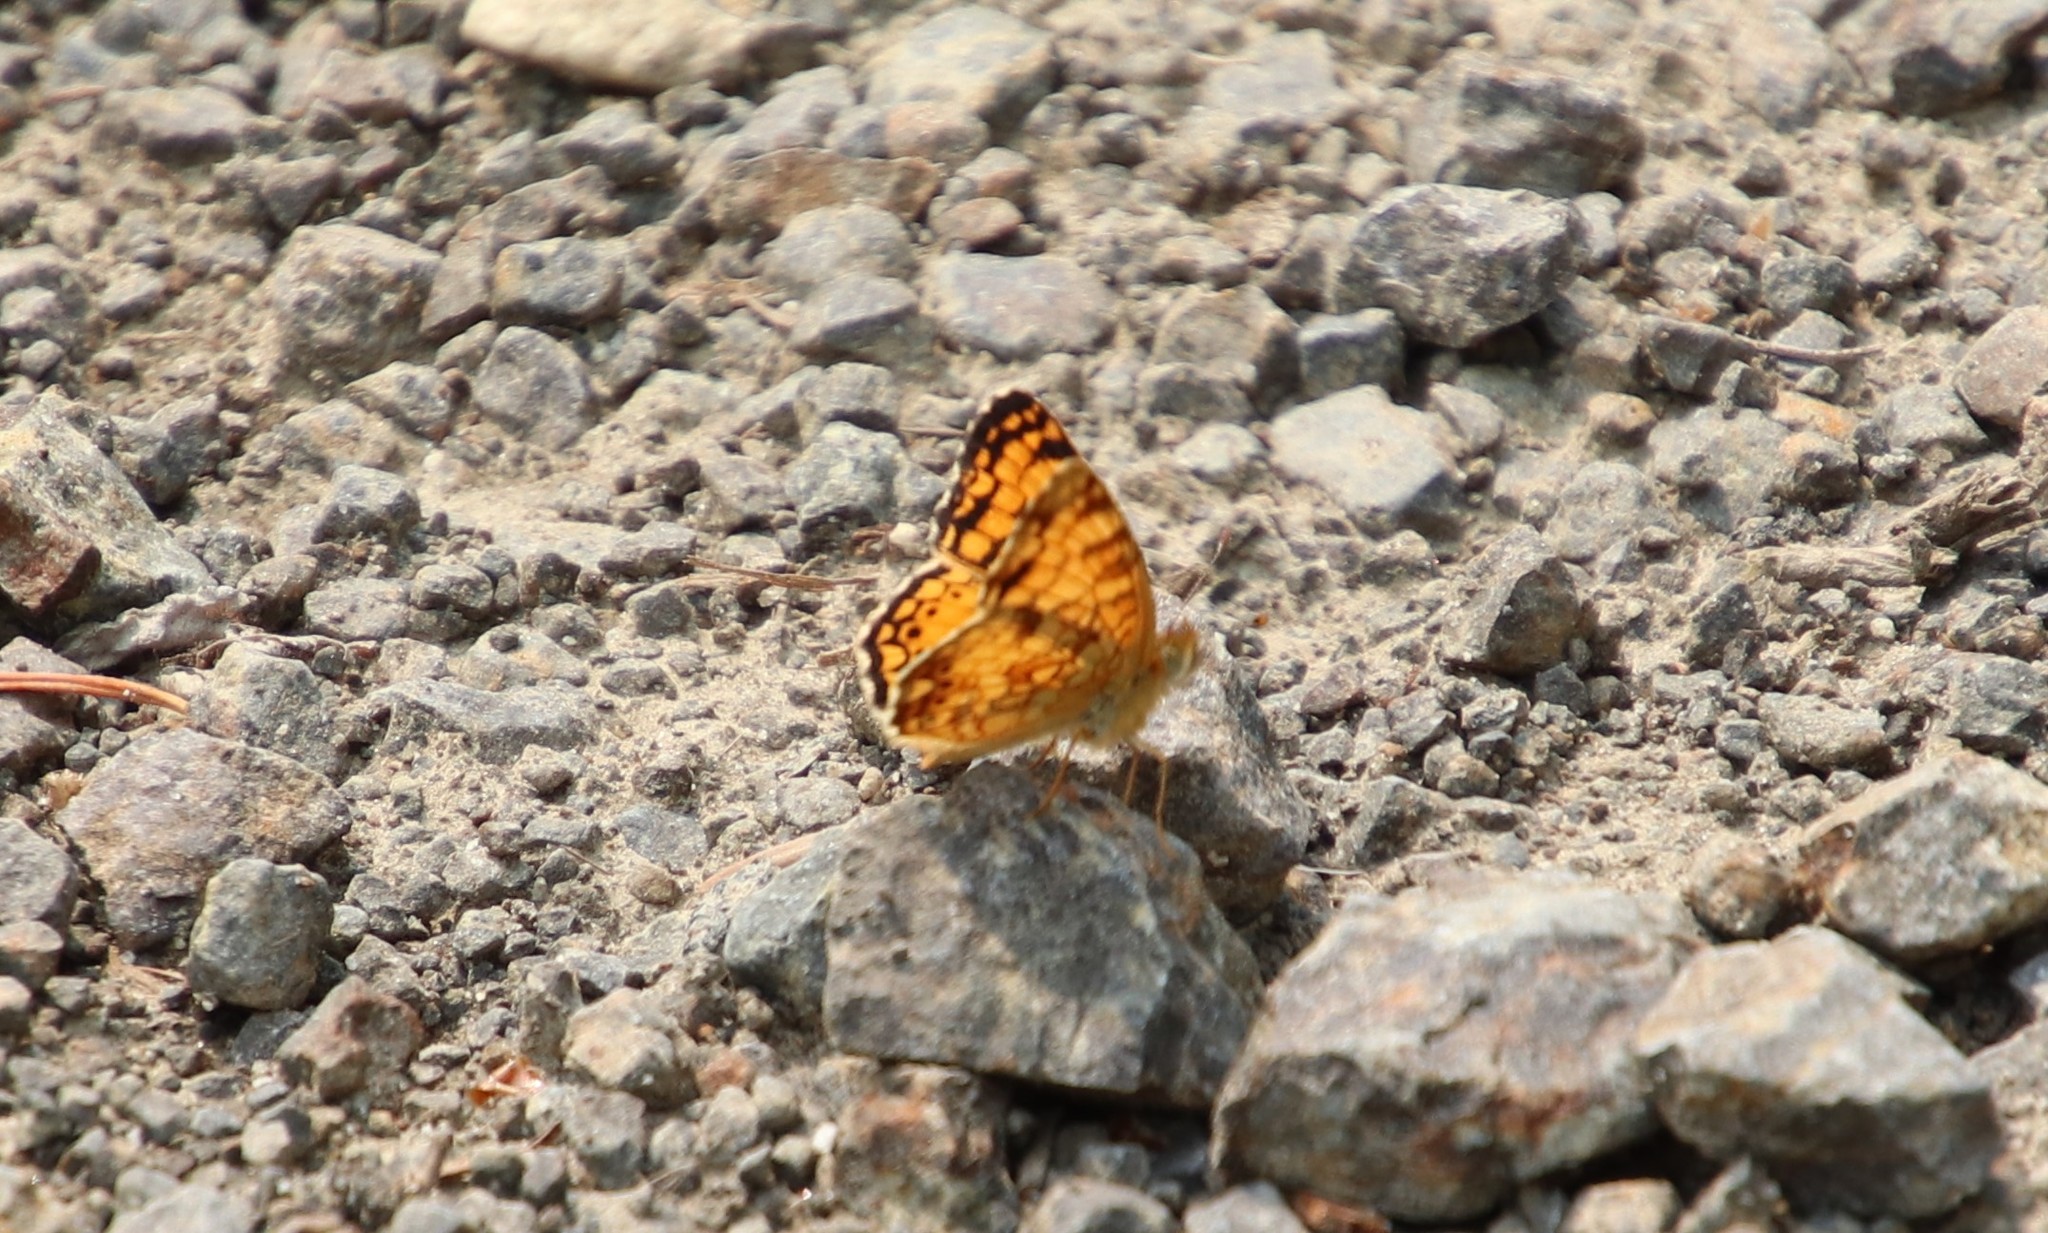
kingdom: Animalia
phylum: Arthropoda
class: Insecta
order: Lepidoptera
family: Nymphalidae
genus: Eresia
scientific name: Eresia aveyrona
